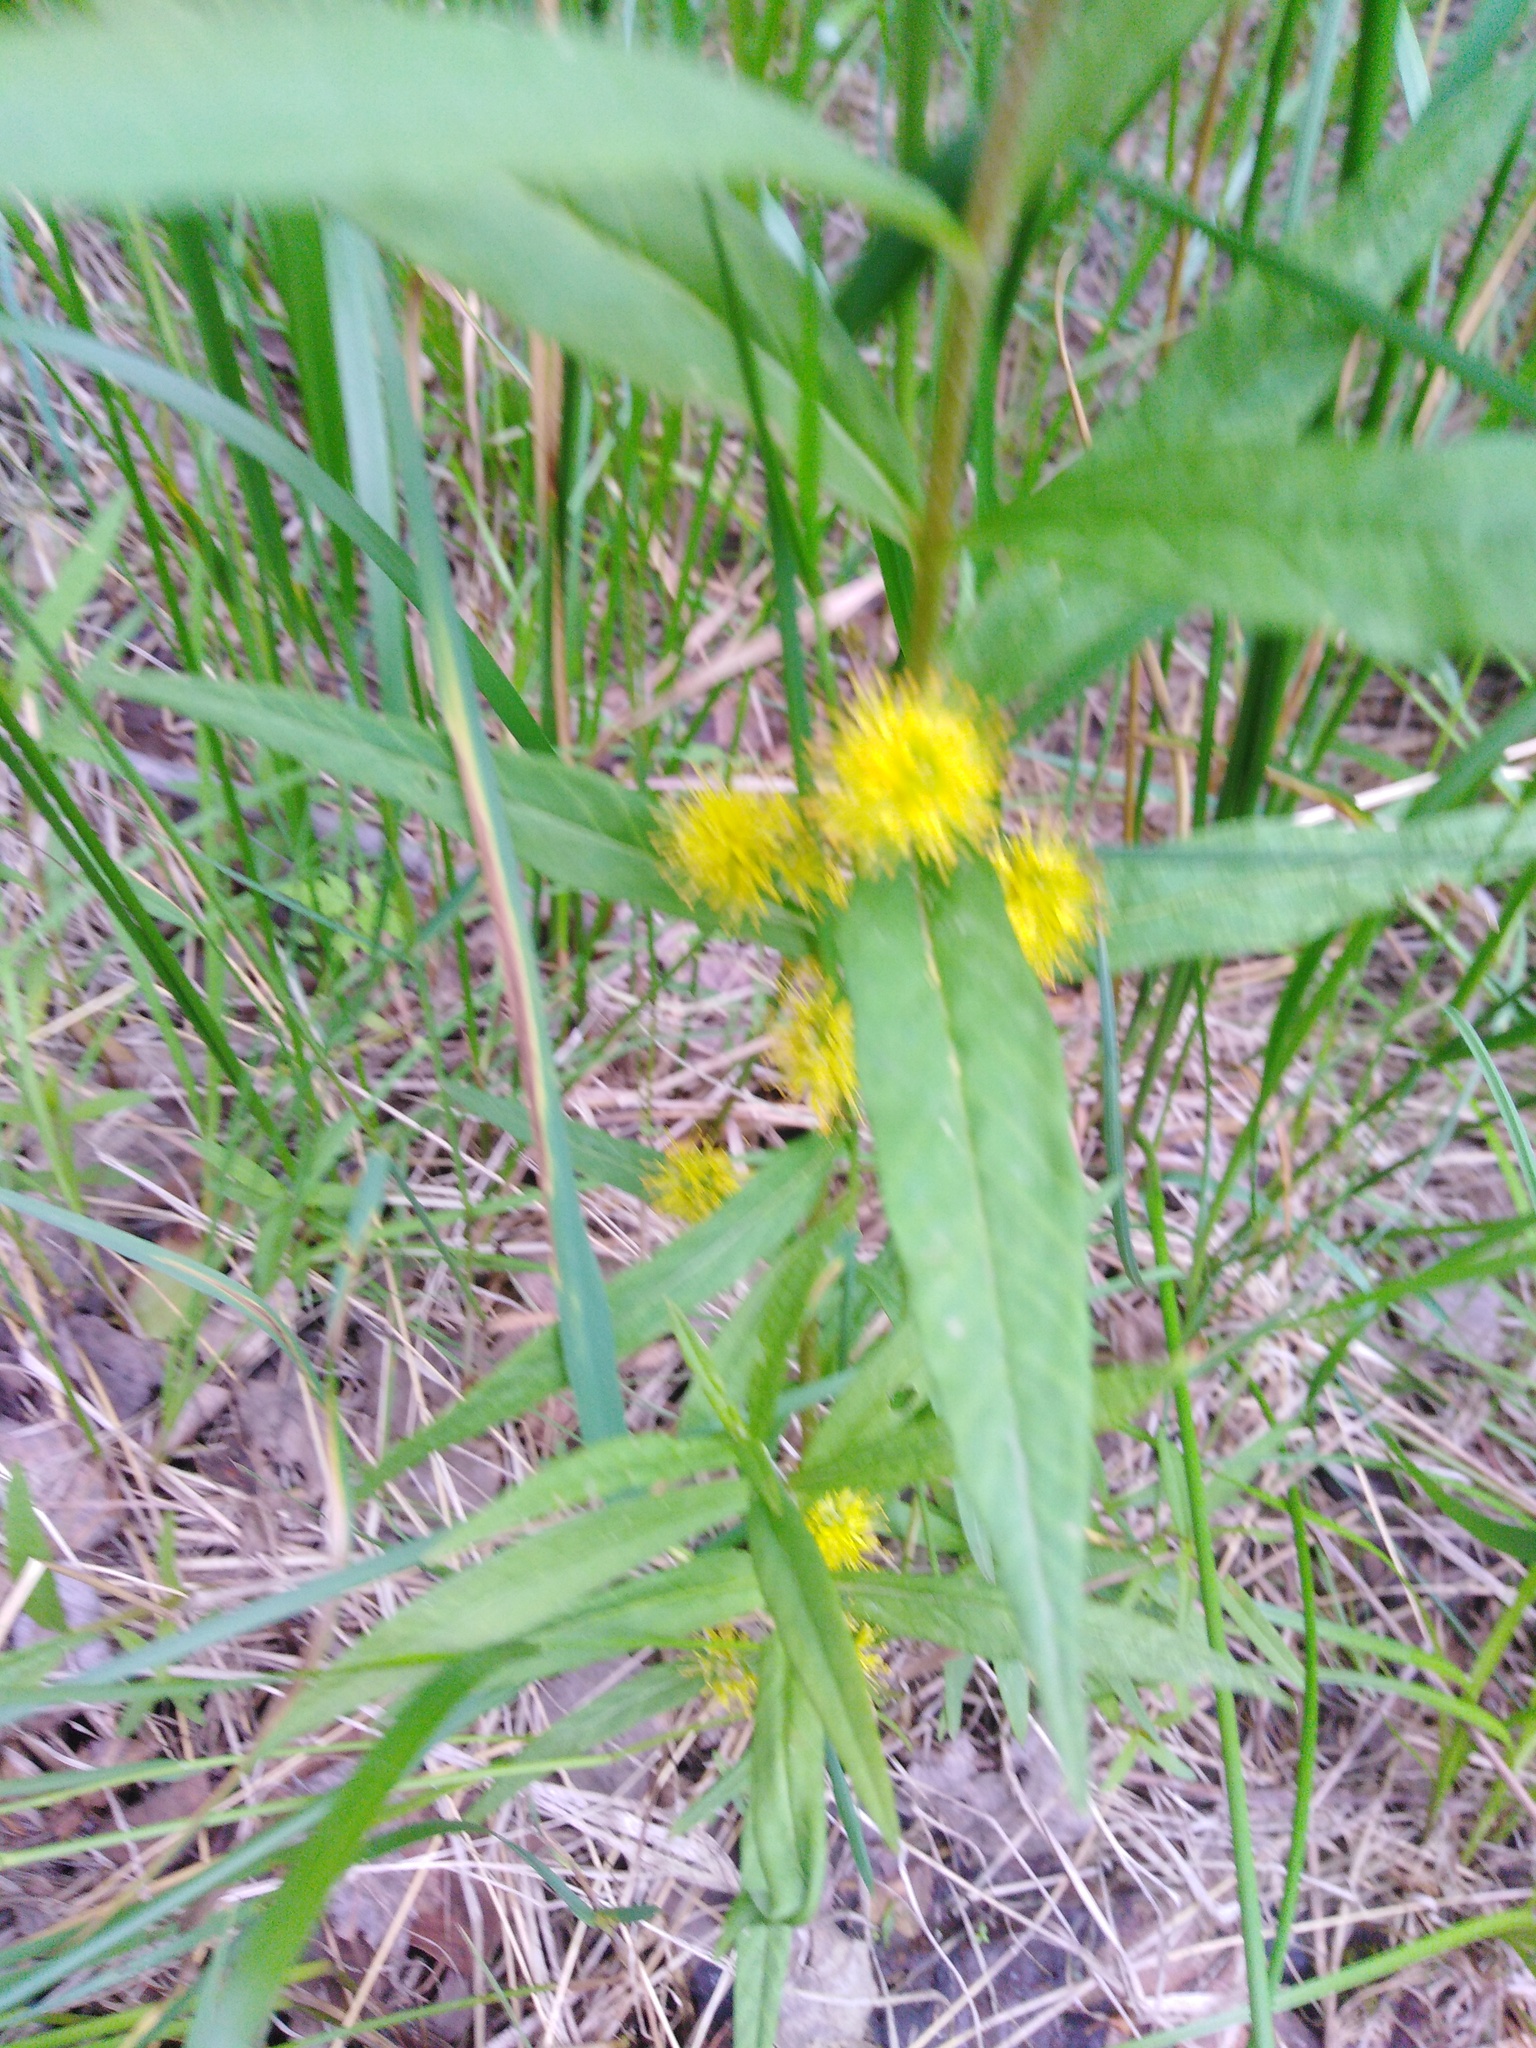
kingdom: Plantae
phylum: Tracheophyta
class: Magnoliopsida
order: Ericales
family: Primulaceae
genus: Lysimachia
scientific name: Lysimachia thyrsiflora
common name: Tufted loosestrife
